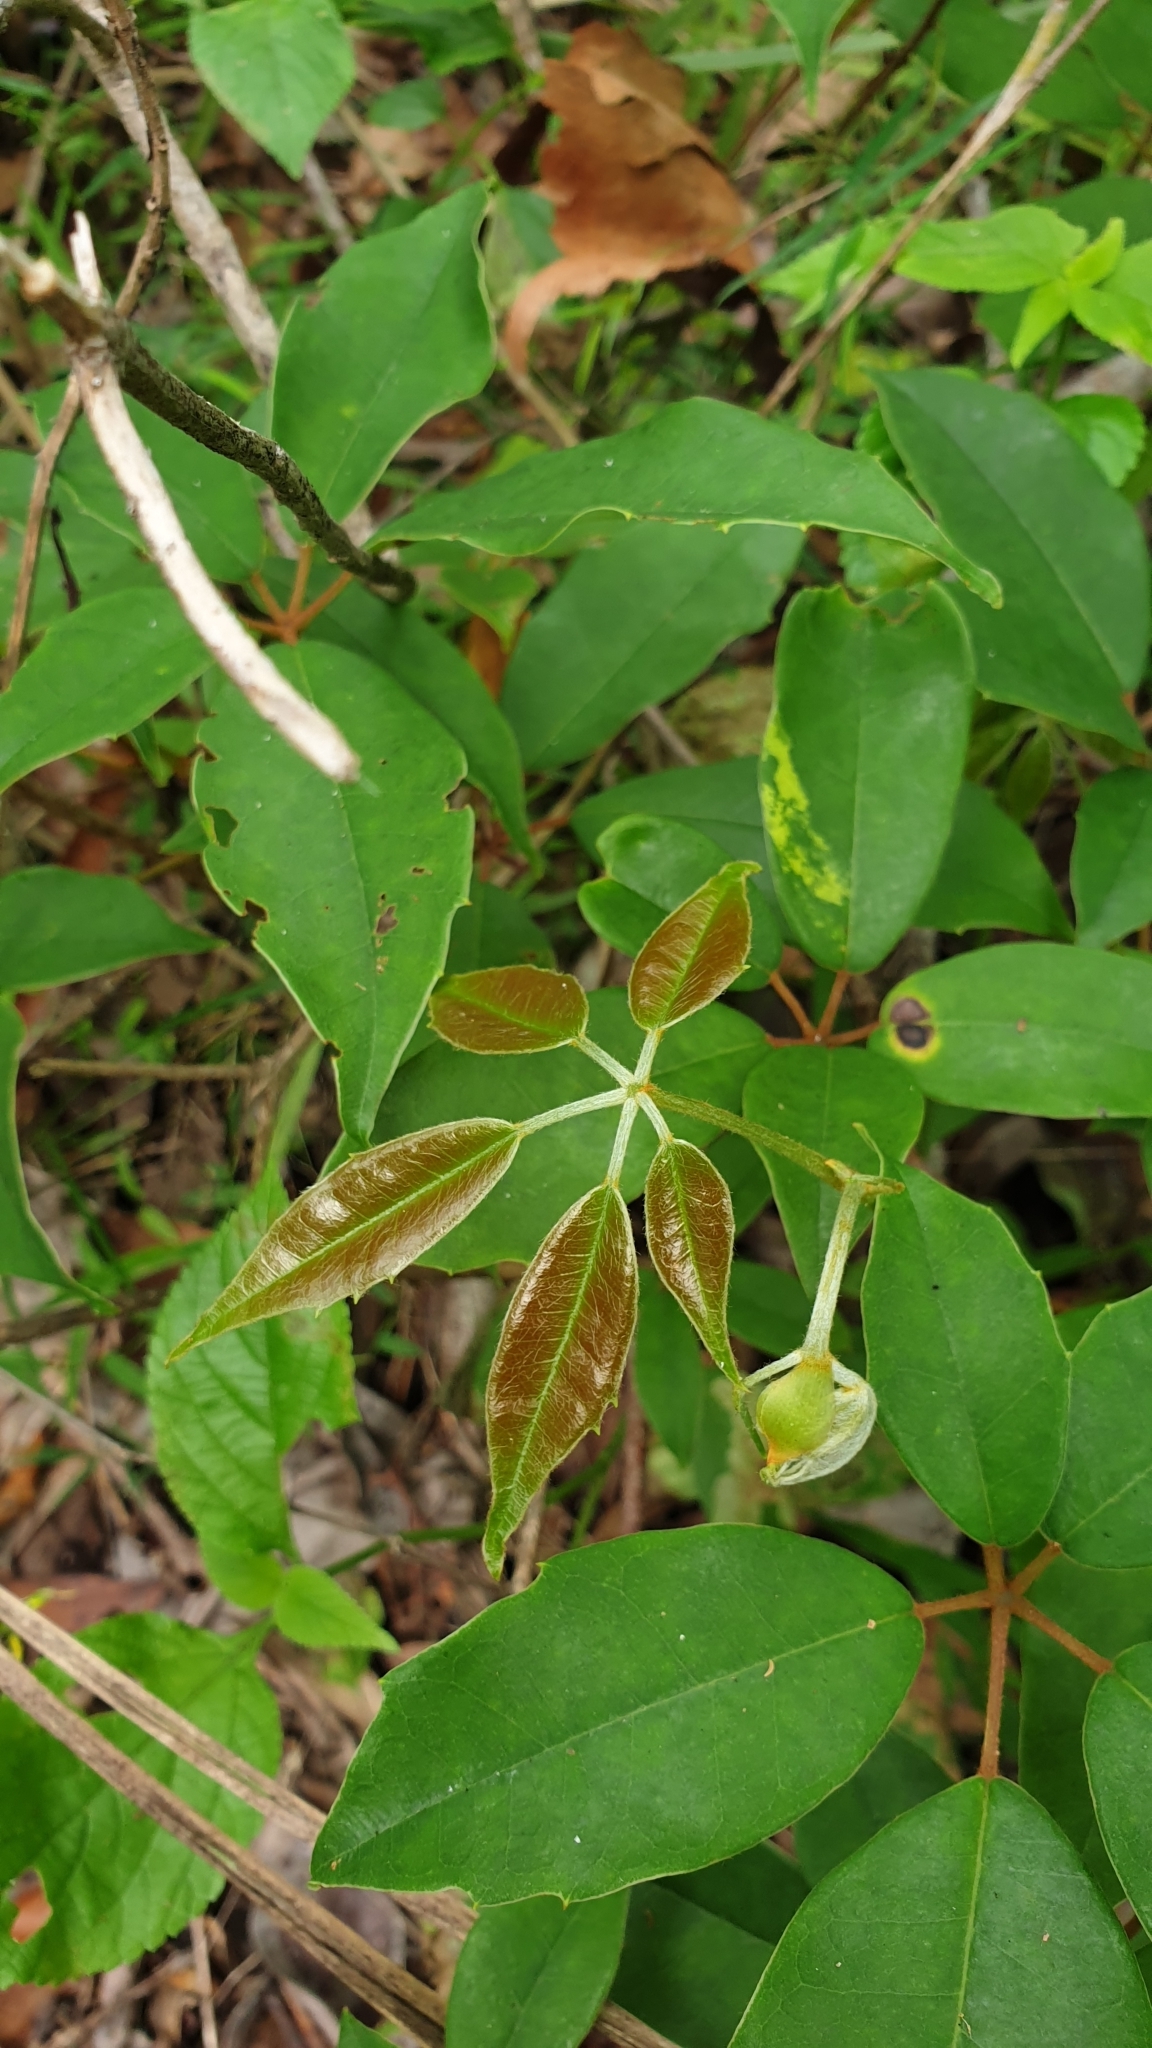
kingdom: Plantae
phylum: Tracheophyta
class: Magnoliopsida
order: Vitales
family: Vitaceae
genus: Nothocissus
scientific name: Nothocissus hypoglauca
